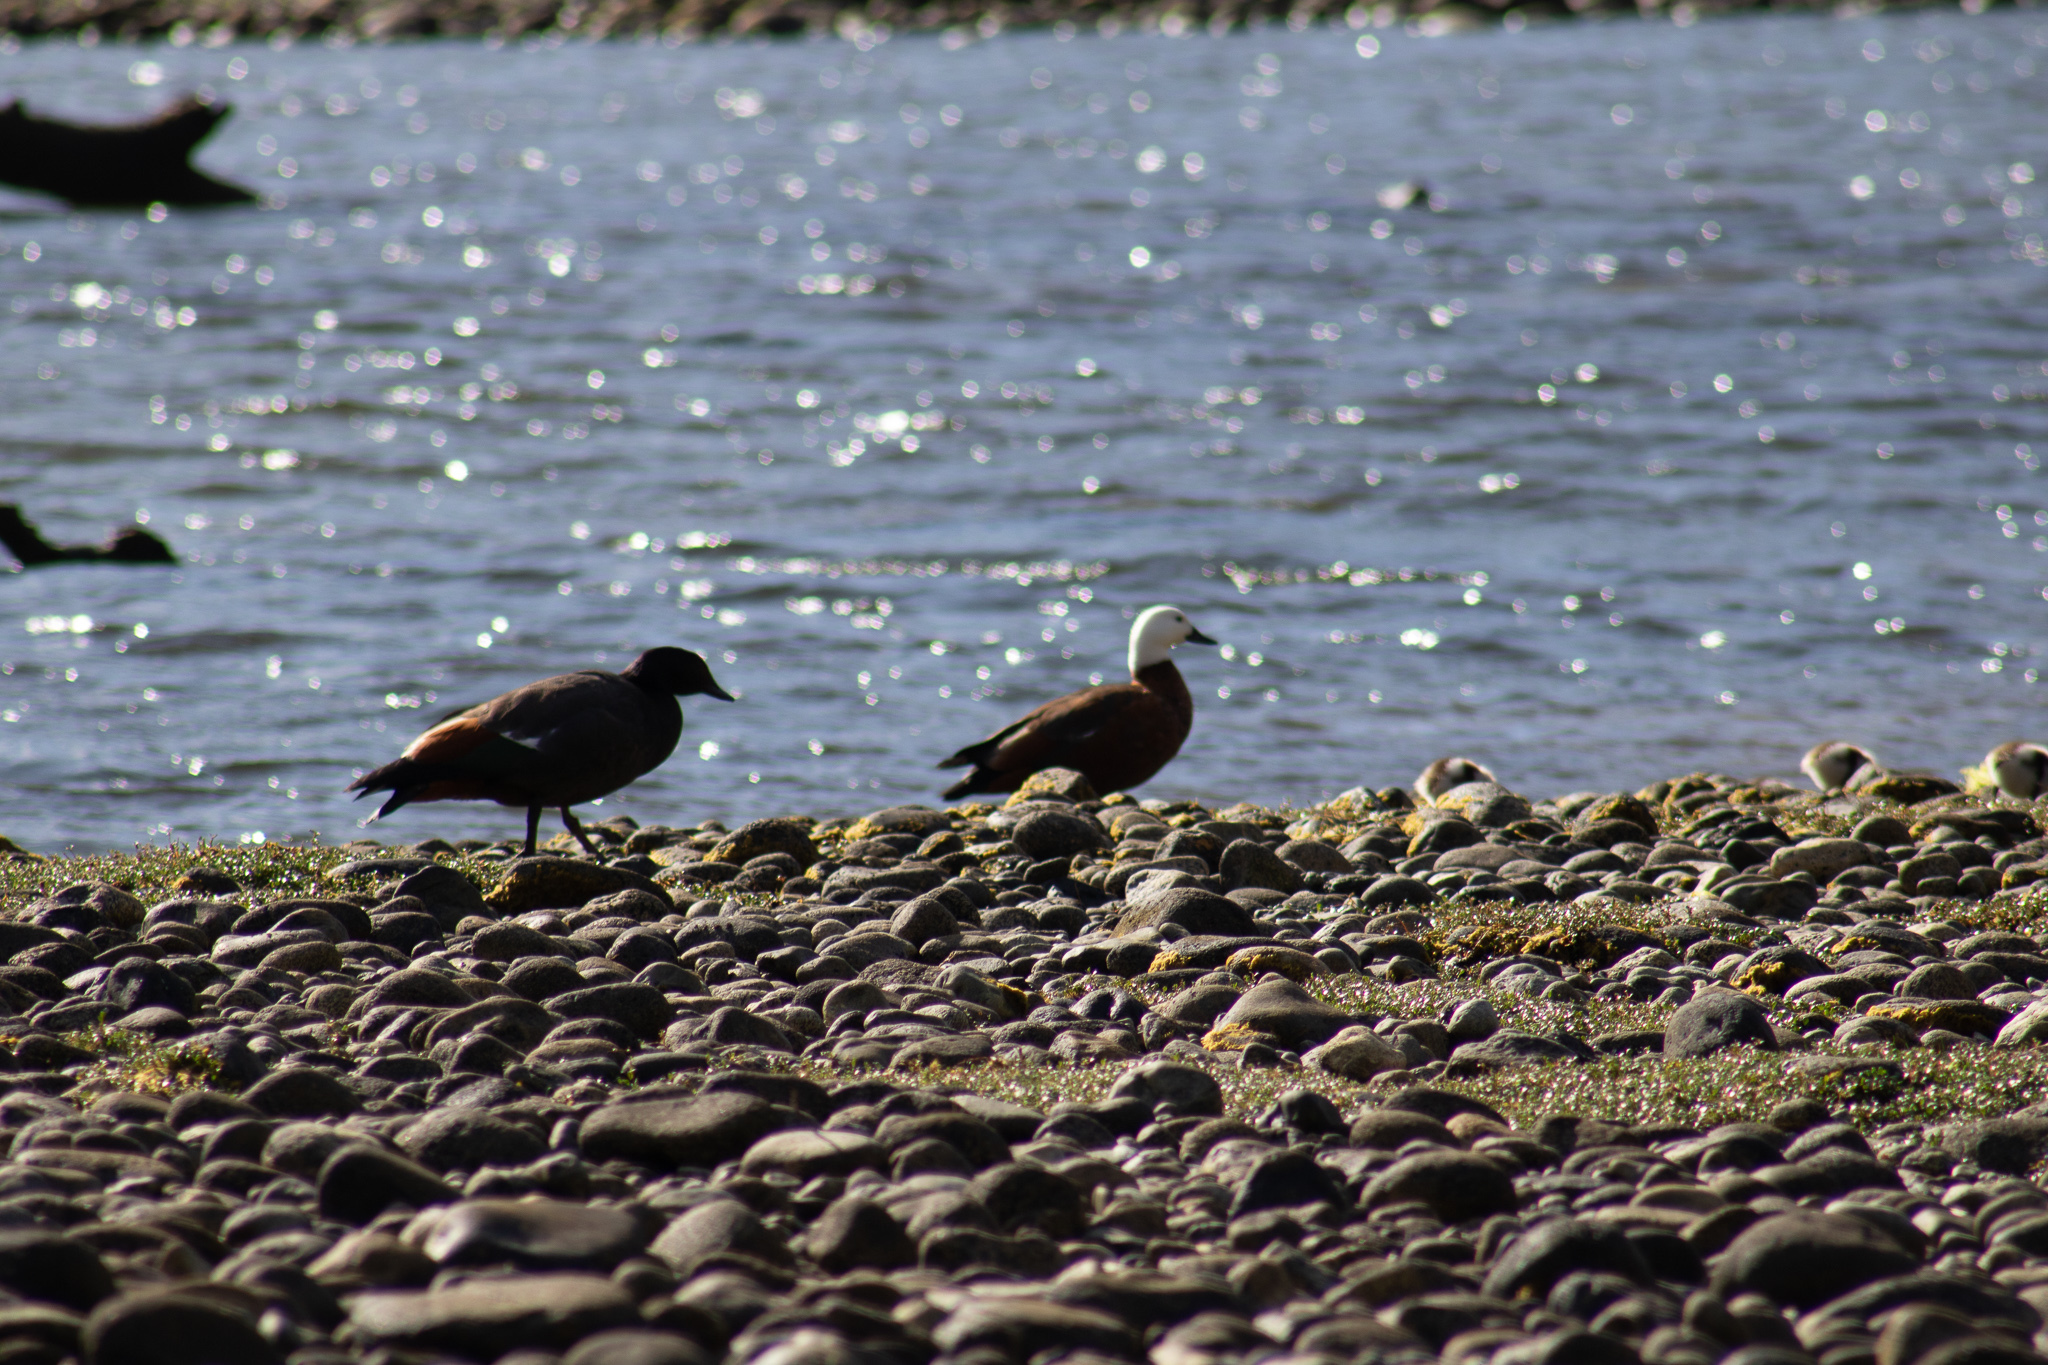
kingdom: Animalia
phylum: Chordata
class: Aves
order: Anseriformes
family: Anatidae
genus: Tadorna
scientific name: Tadorna variegata
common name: Paradise shelduck
